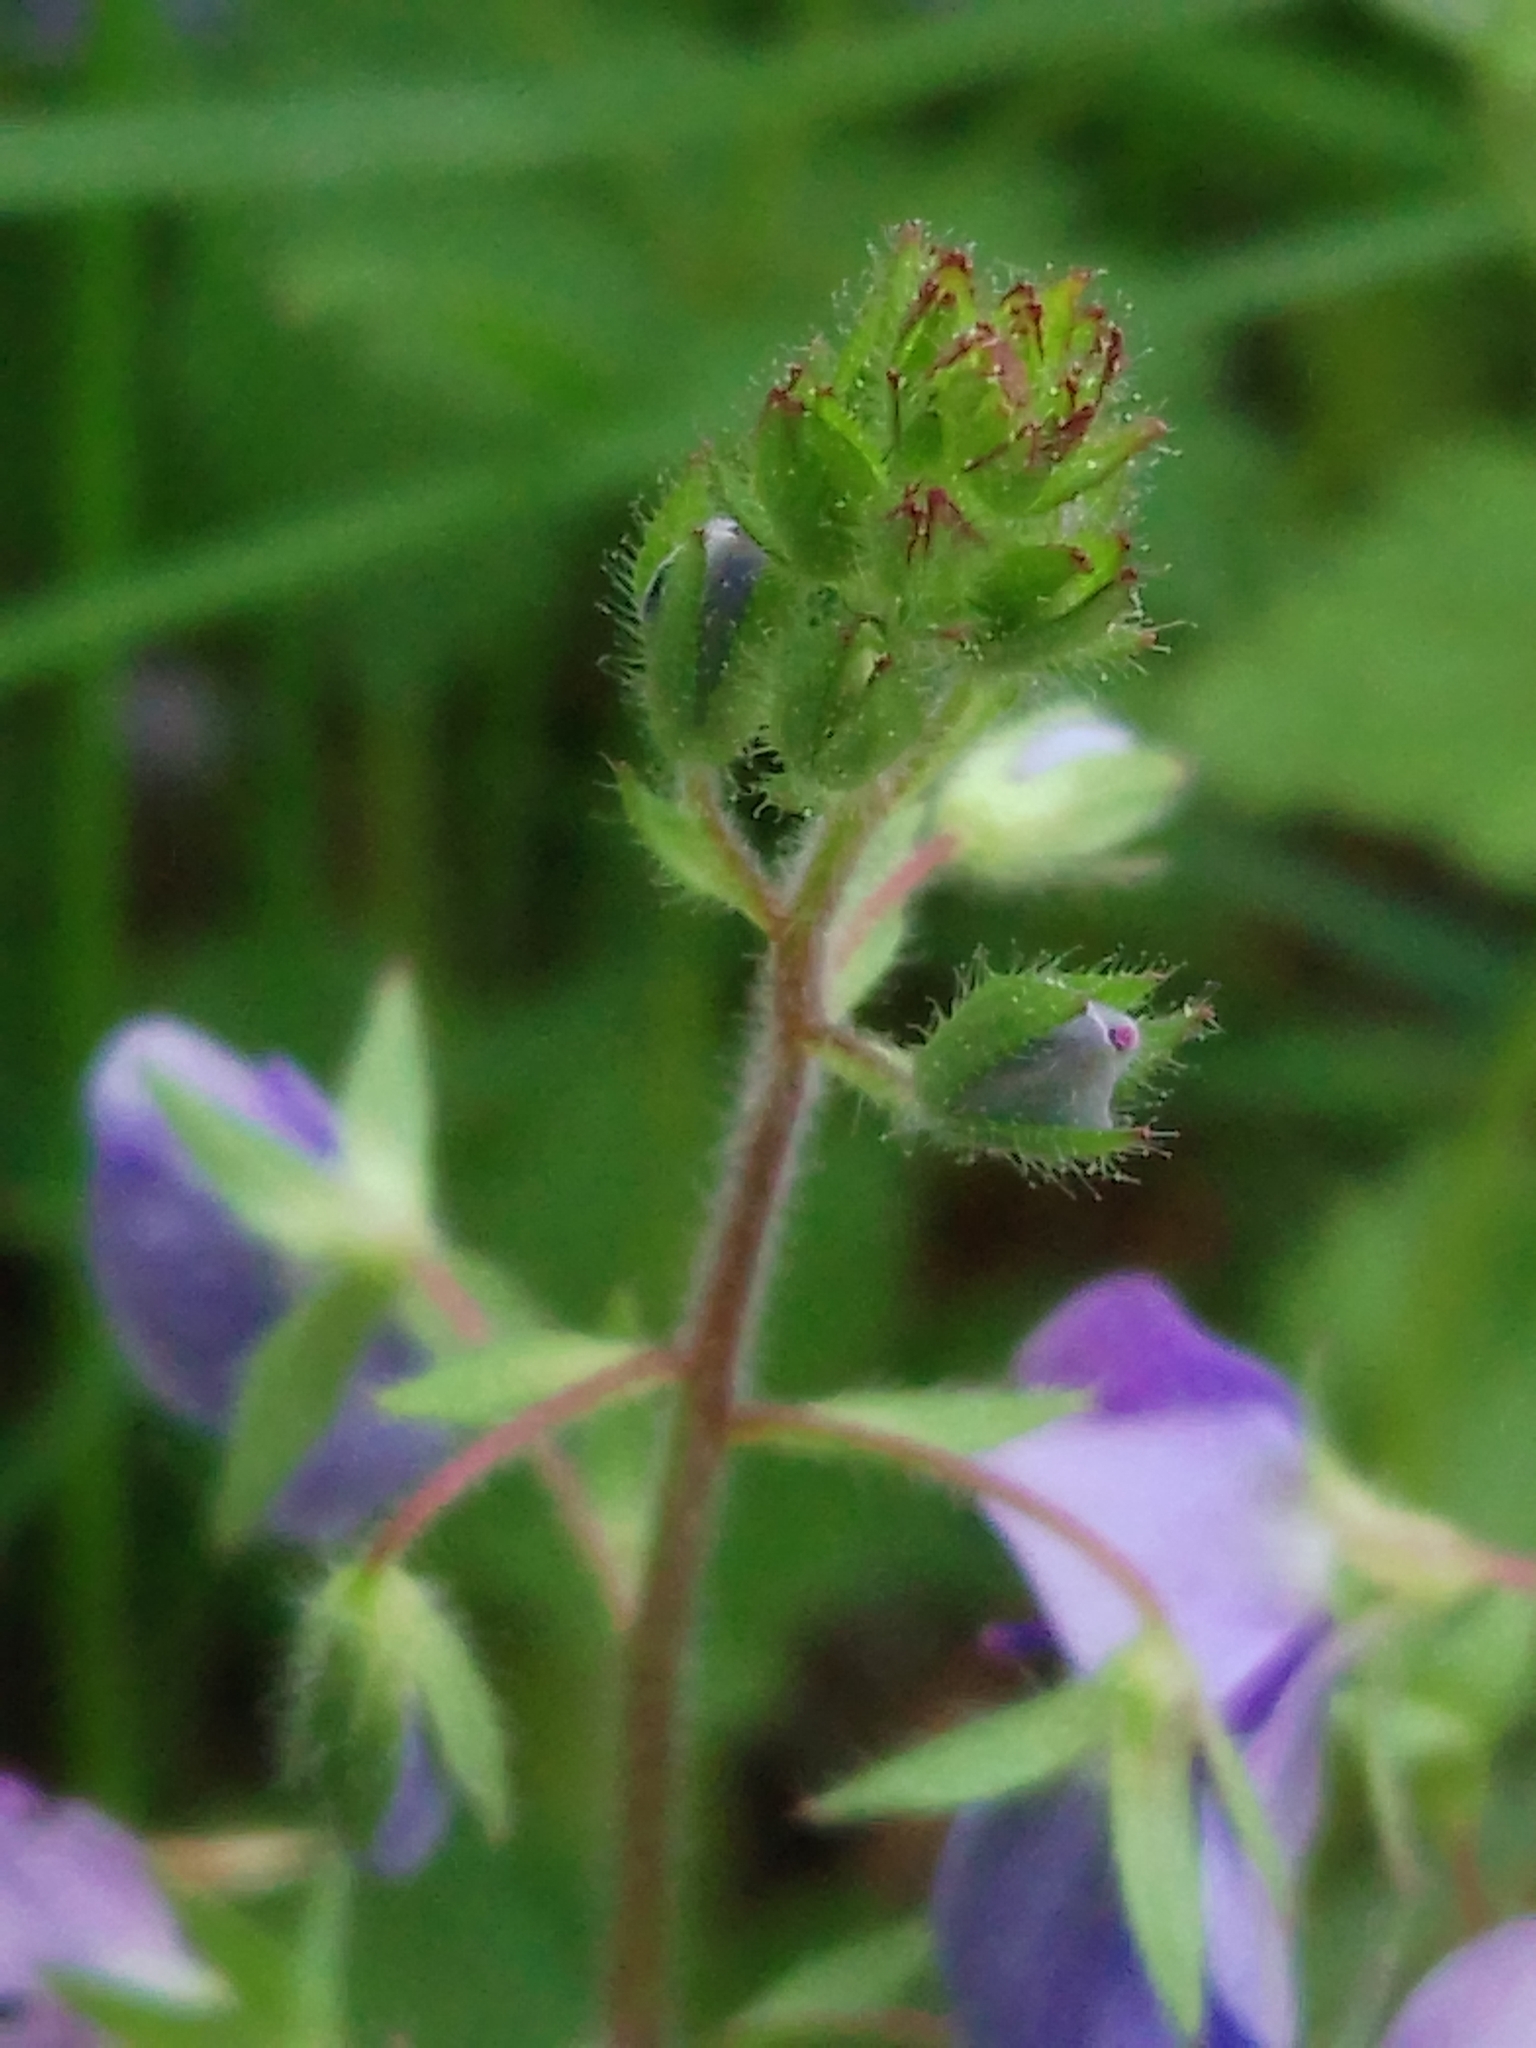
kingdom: Plantae
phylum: Tracheophyta
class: Magnoliopsida
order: Lamiales
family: Plantaginaceae
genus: Veronica
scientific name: Veronica chamaedrys
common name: Germander speedwell
